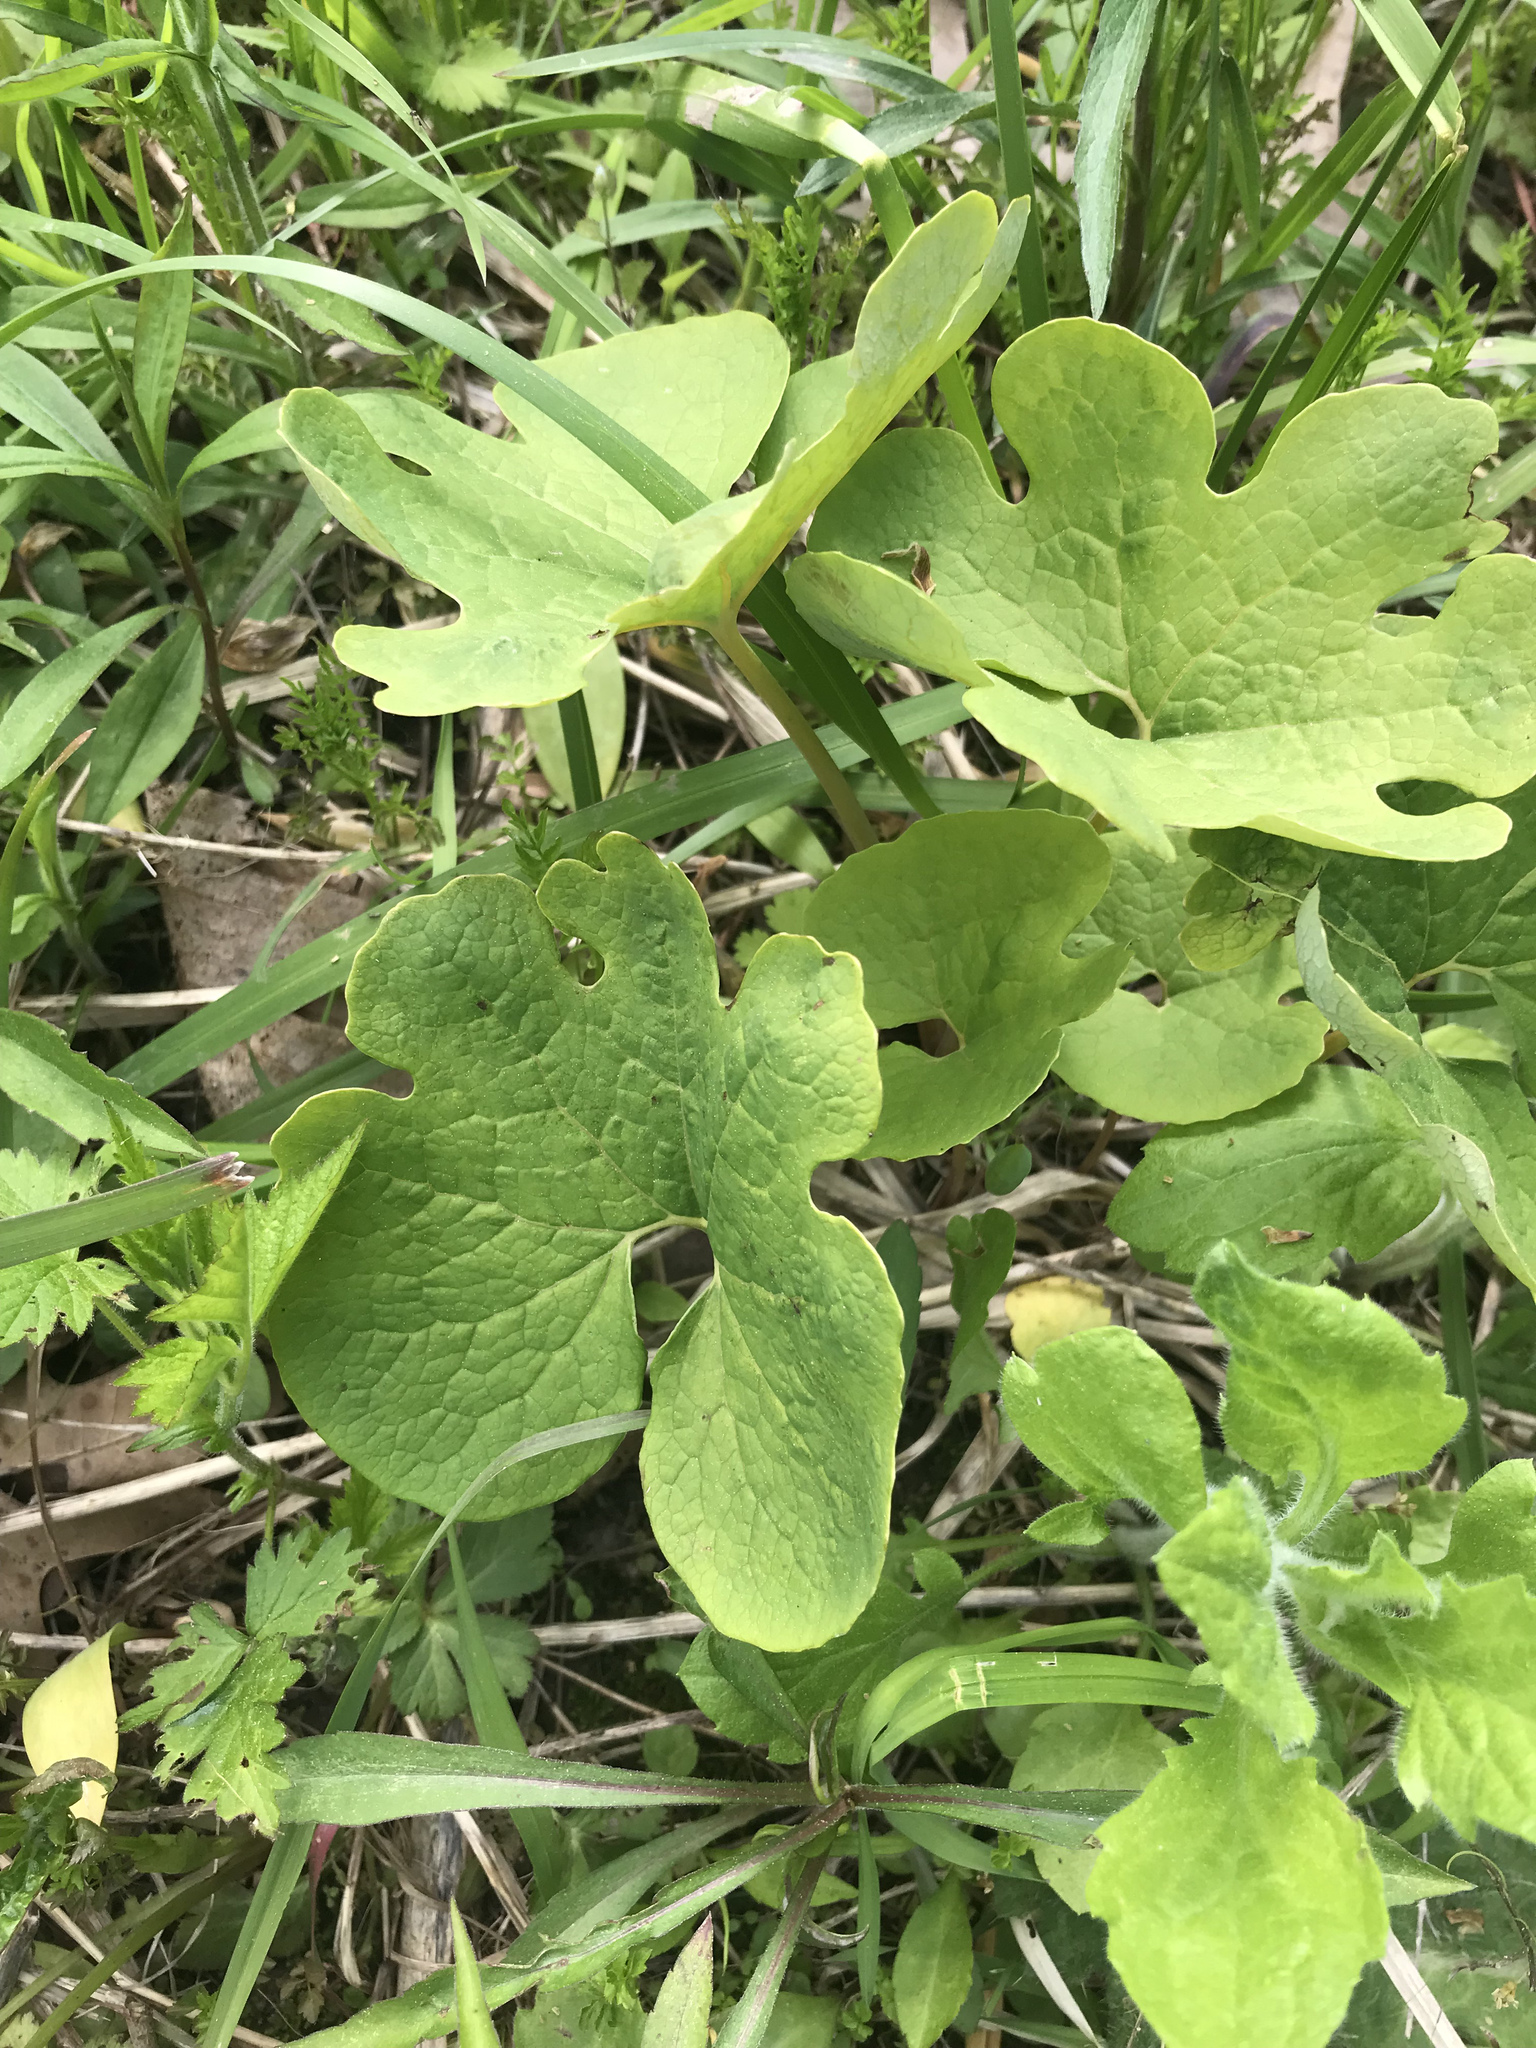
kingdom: Plantae
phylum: Tracheophyta
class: Magnoliopsida
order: Ranunculales
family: Papaveraceae
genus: Sanguinaria
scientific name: Sanguinaria canadensis
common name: Bloodroot
